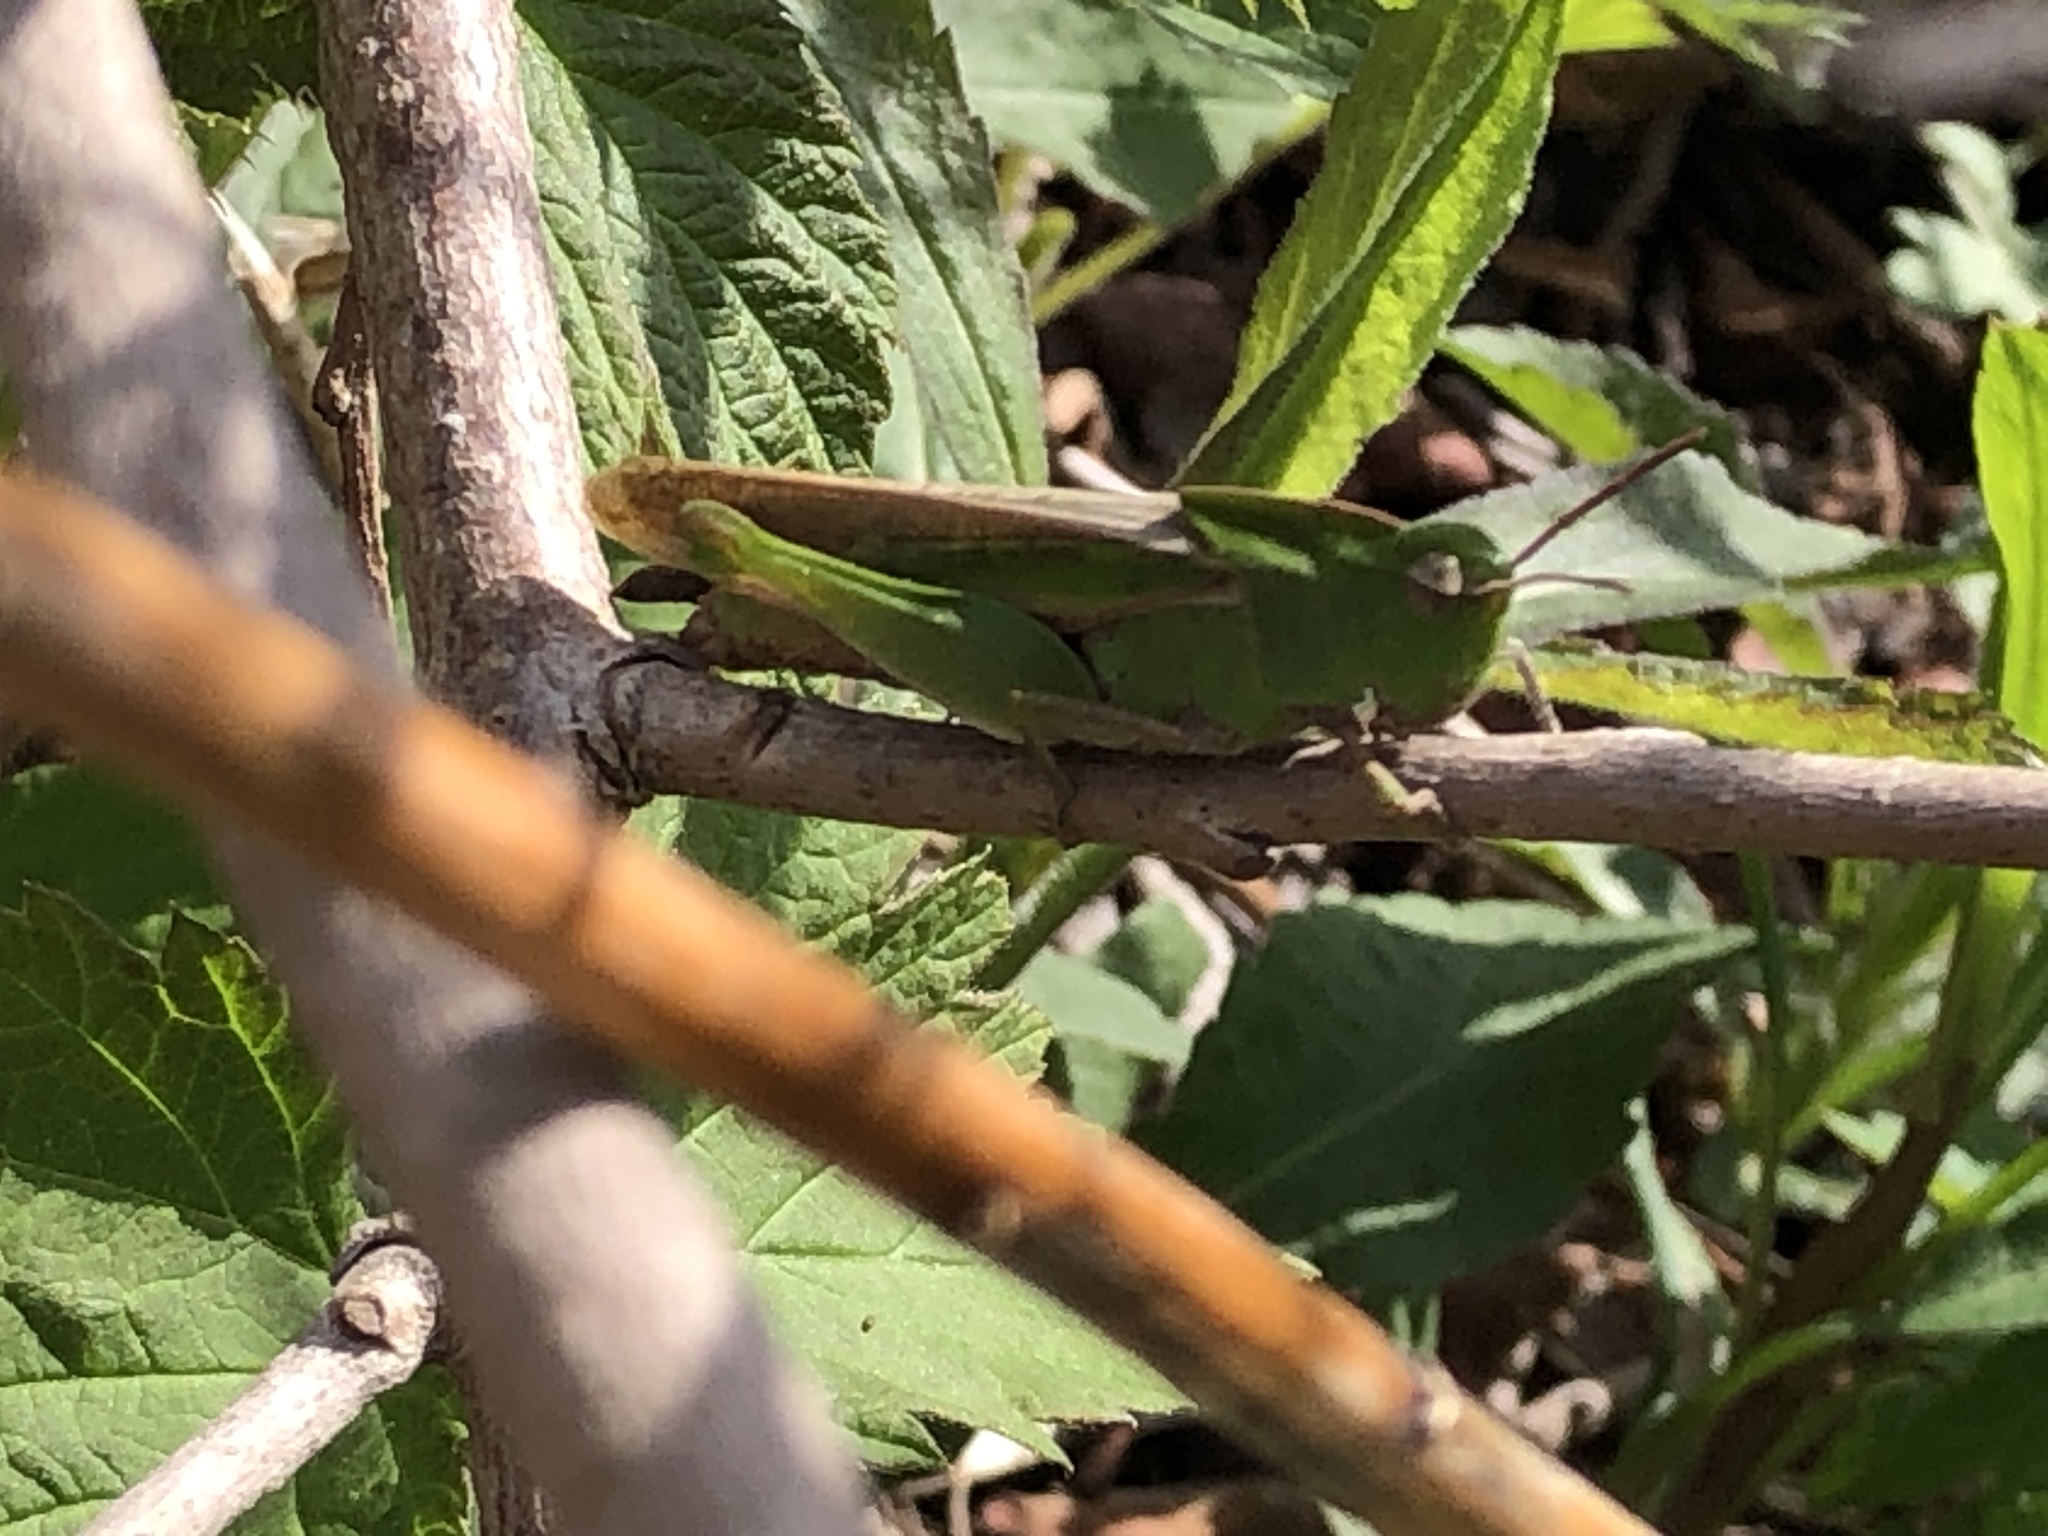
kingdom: Animalia
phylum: Arthropoda
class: Insecta
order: Orthoptera
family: Acrididae
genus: Chortophaga
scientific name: Chortophaga viridifasciata
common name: Green-striped grasshopper
